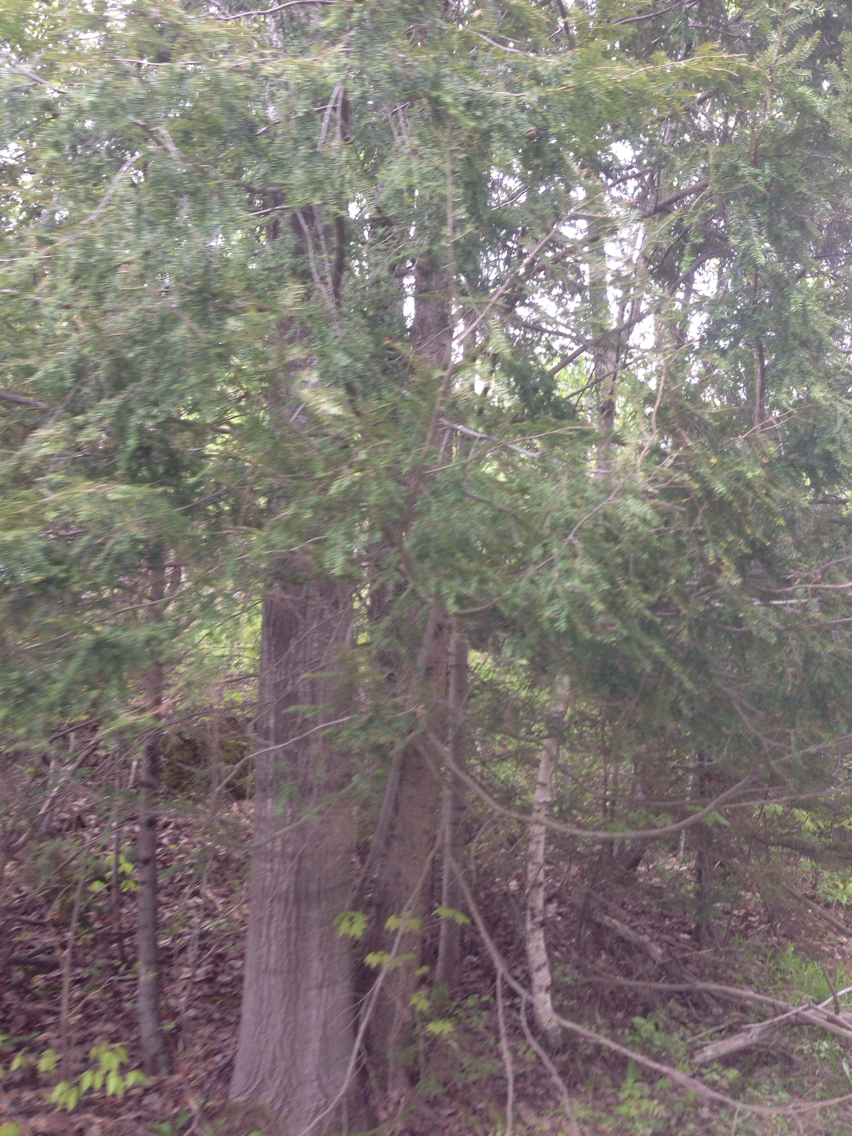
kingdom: Plantae
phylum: Tracheophyta
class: Pinopsida
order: Pinales
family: Pinaceae
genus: Tsuga
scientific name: Tsuga canadensis
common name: Eastern hemlock
